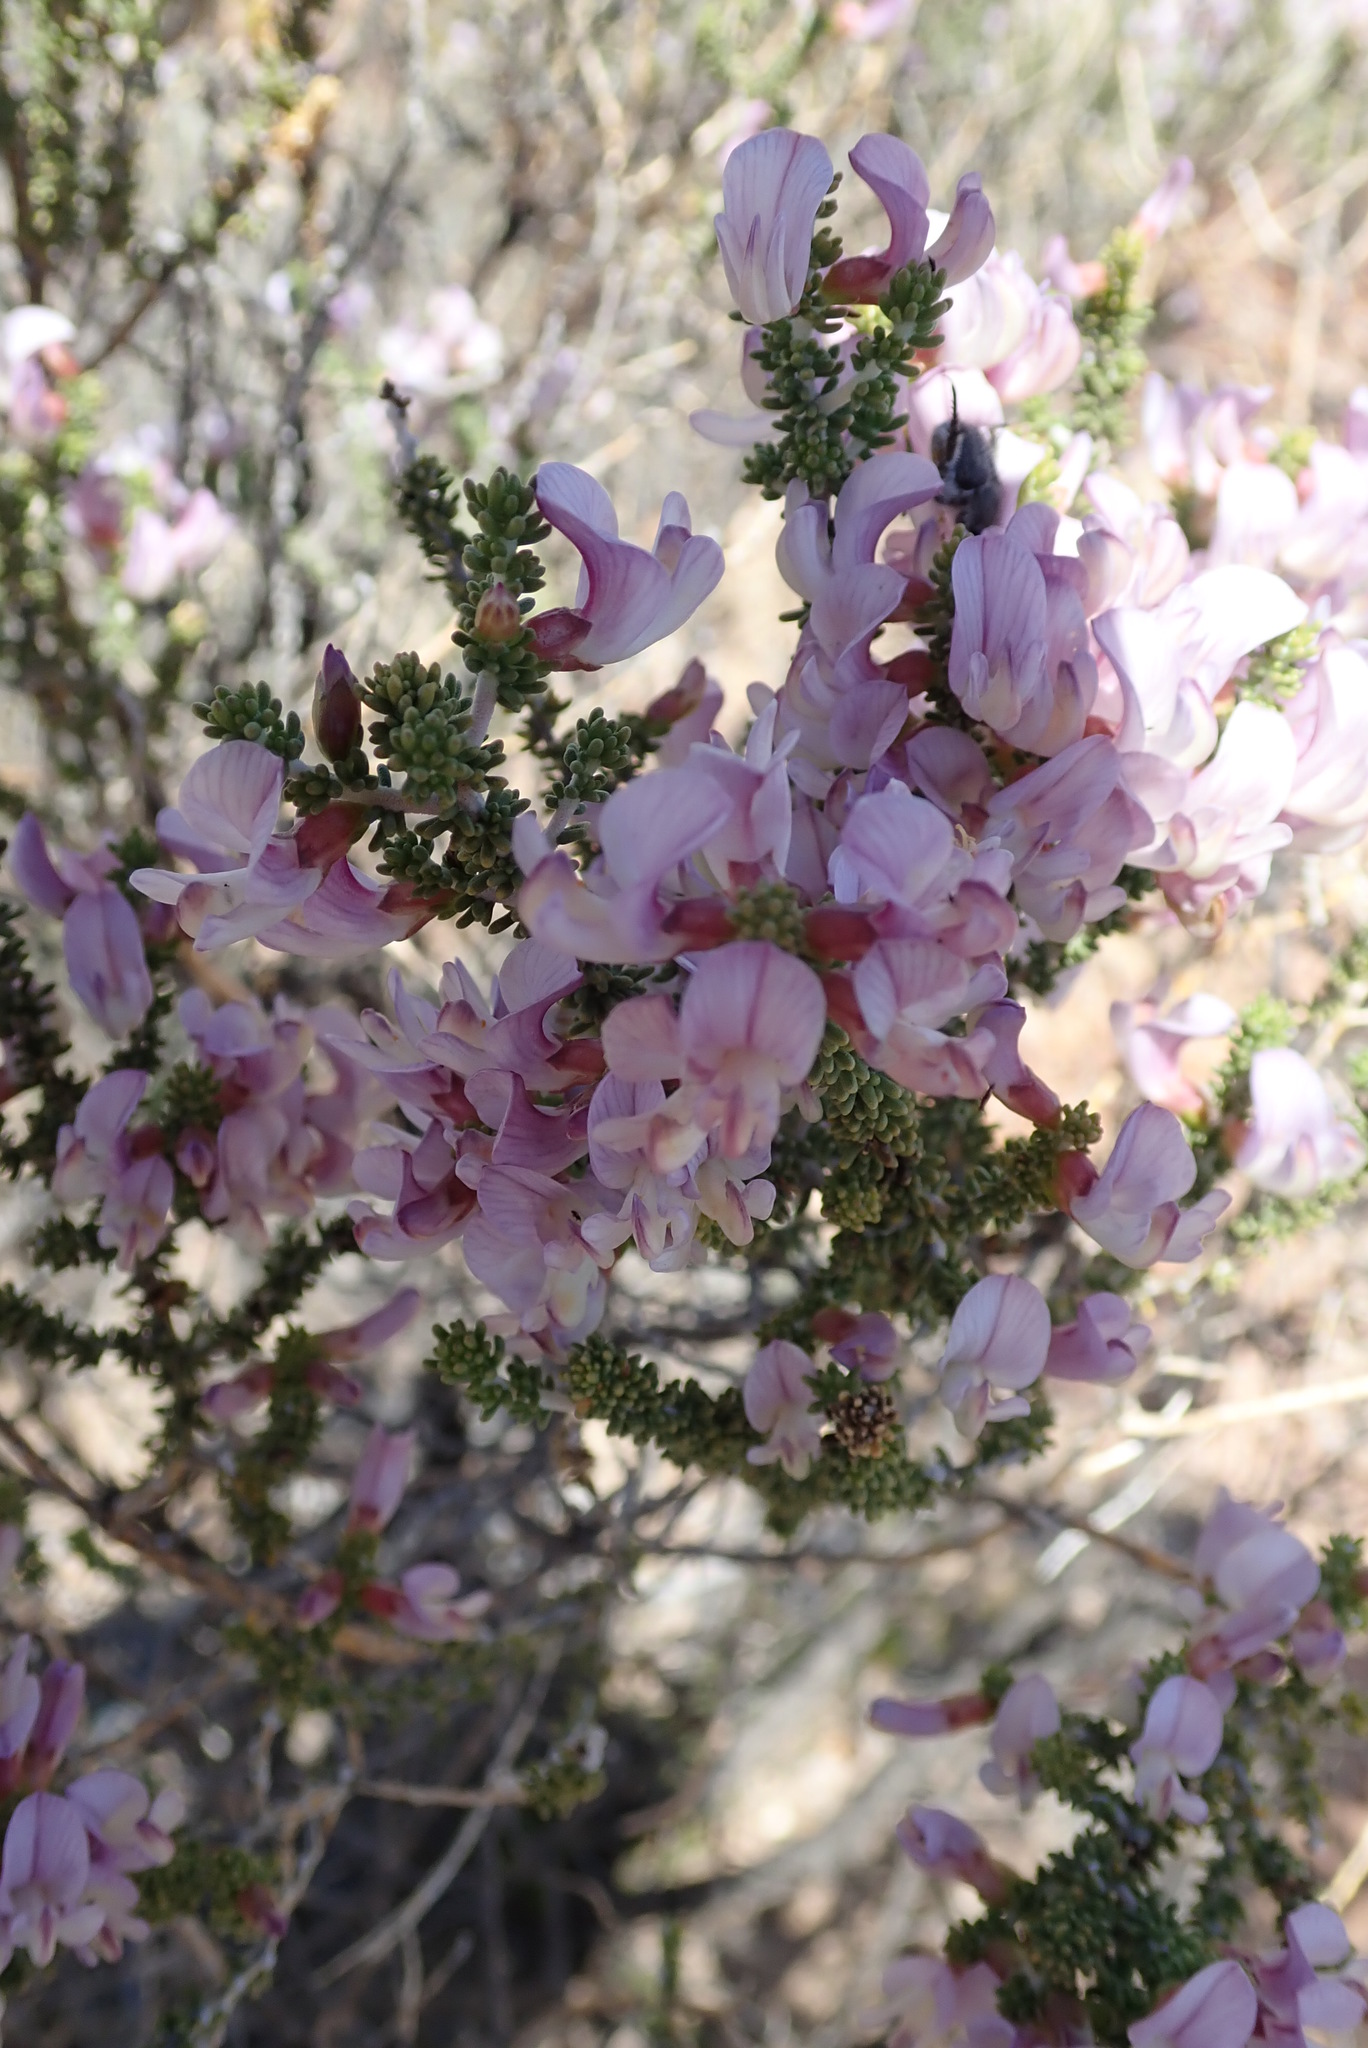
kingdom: Plantae
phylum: Tracheophyta
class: Magnoliopsida
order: Fabales
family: Fabaceae
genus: Aspalathus
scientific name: Aspalathus costulata
